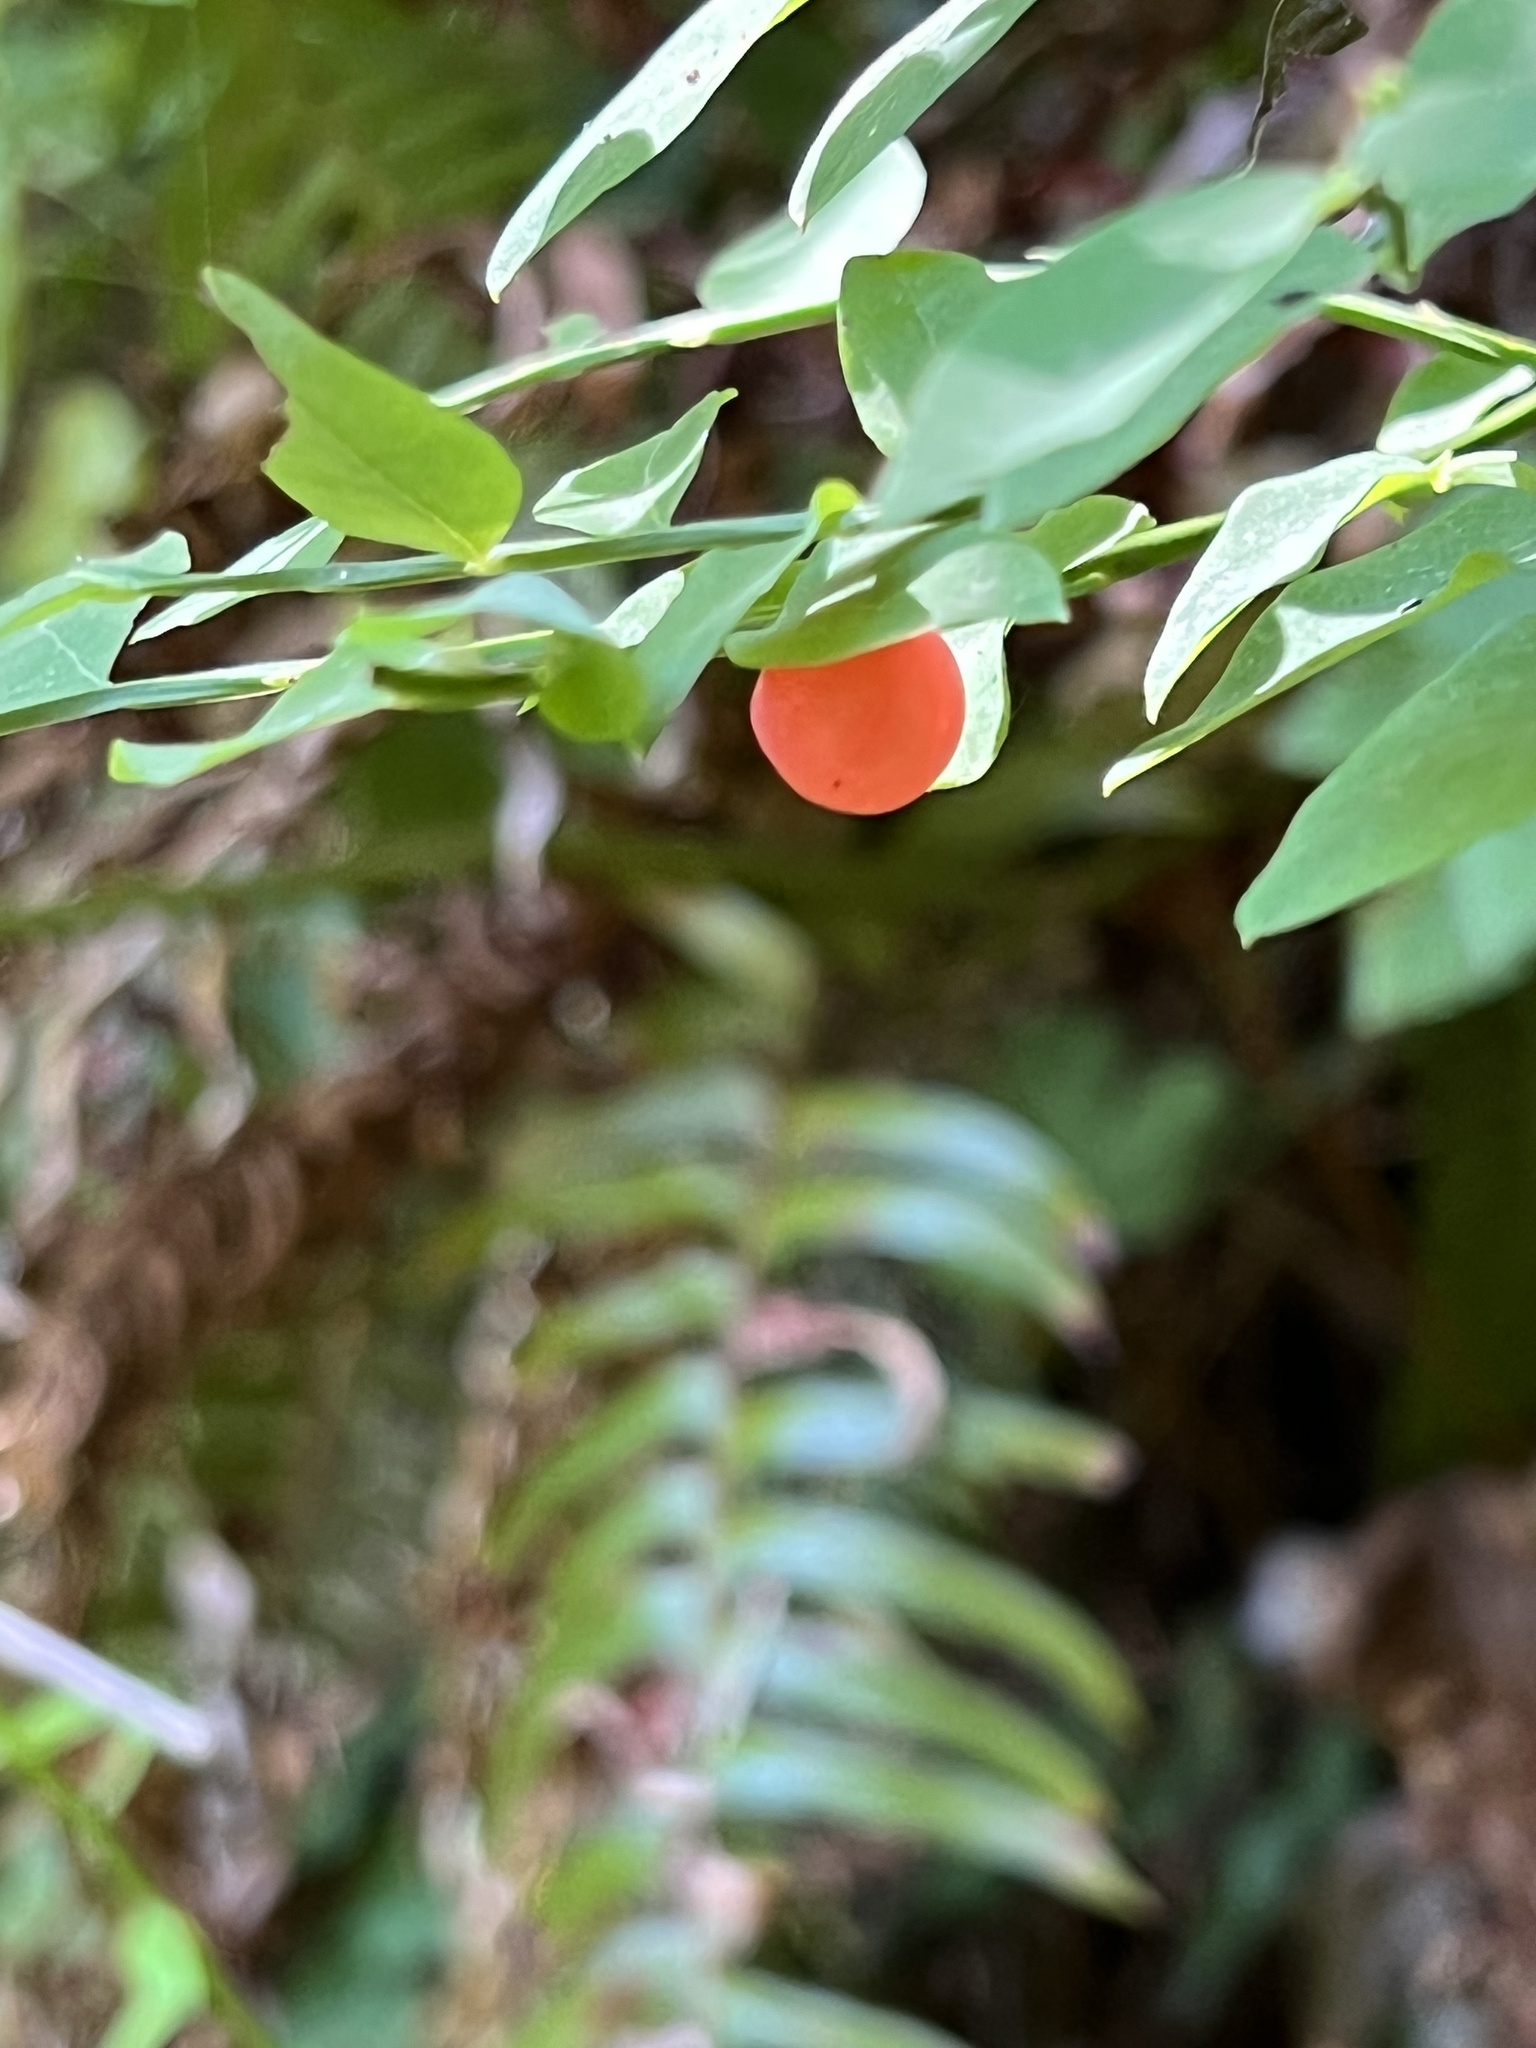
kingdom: Plantae
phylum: Tracheophyta
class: Magnoliopsida
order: Ericales
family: Ericaceae
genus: Vaccinium
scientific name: Vaccinium parvifolium
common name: Red-huckleberry
